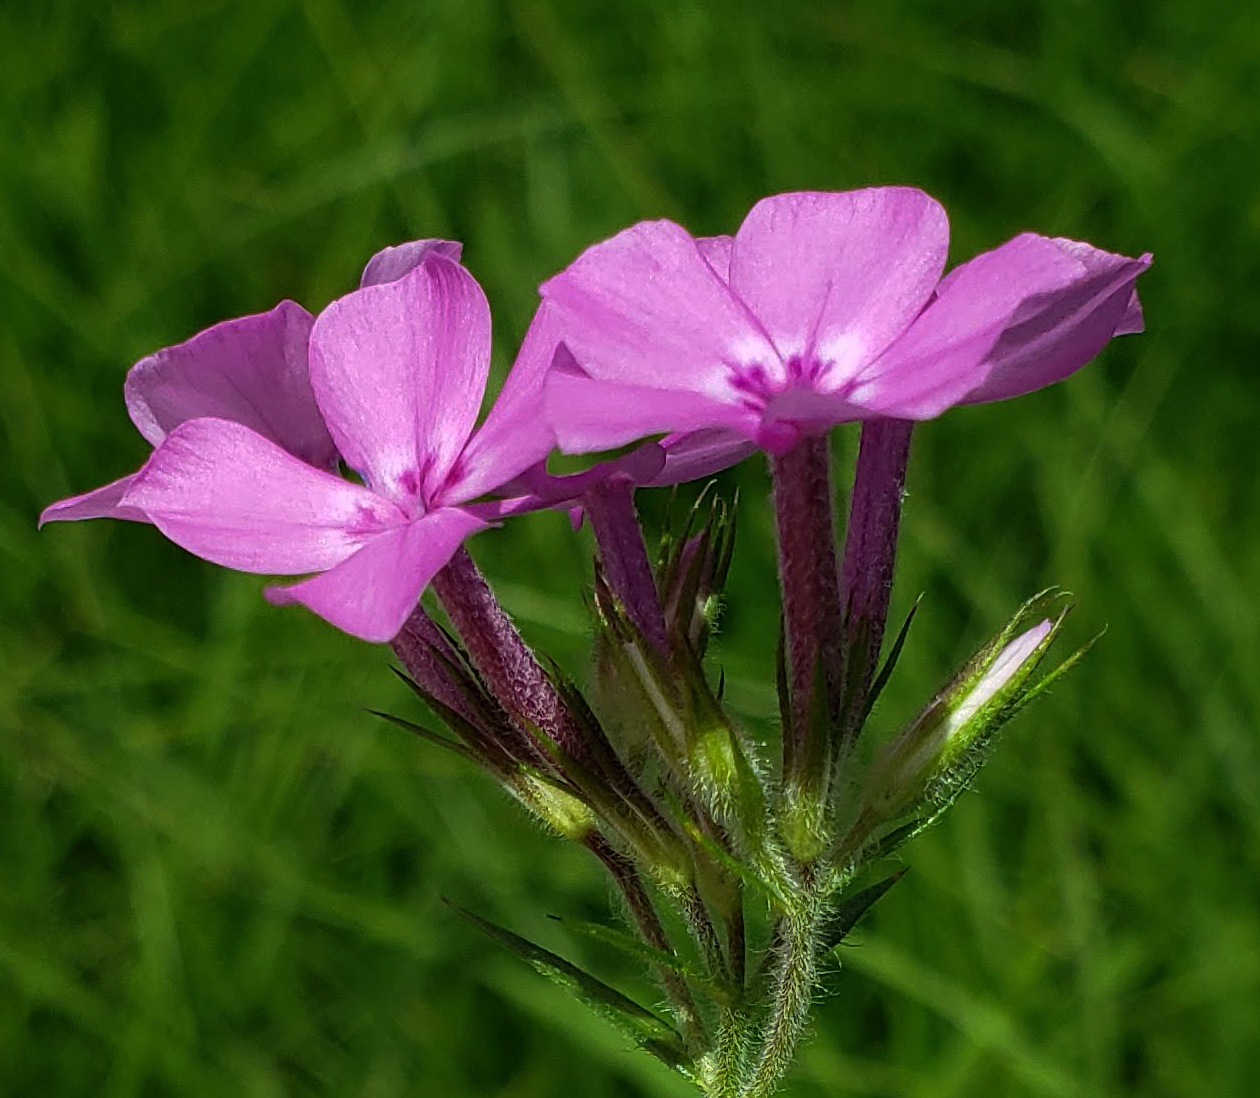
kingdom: Plantae
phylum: Tracheophyta
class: Magnoliopsida
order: Ericales
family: Polemoniaceae
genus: Phlox
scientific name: Phlox pilosa
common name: Prairie phlox
